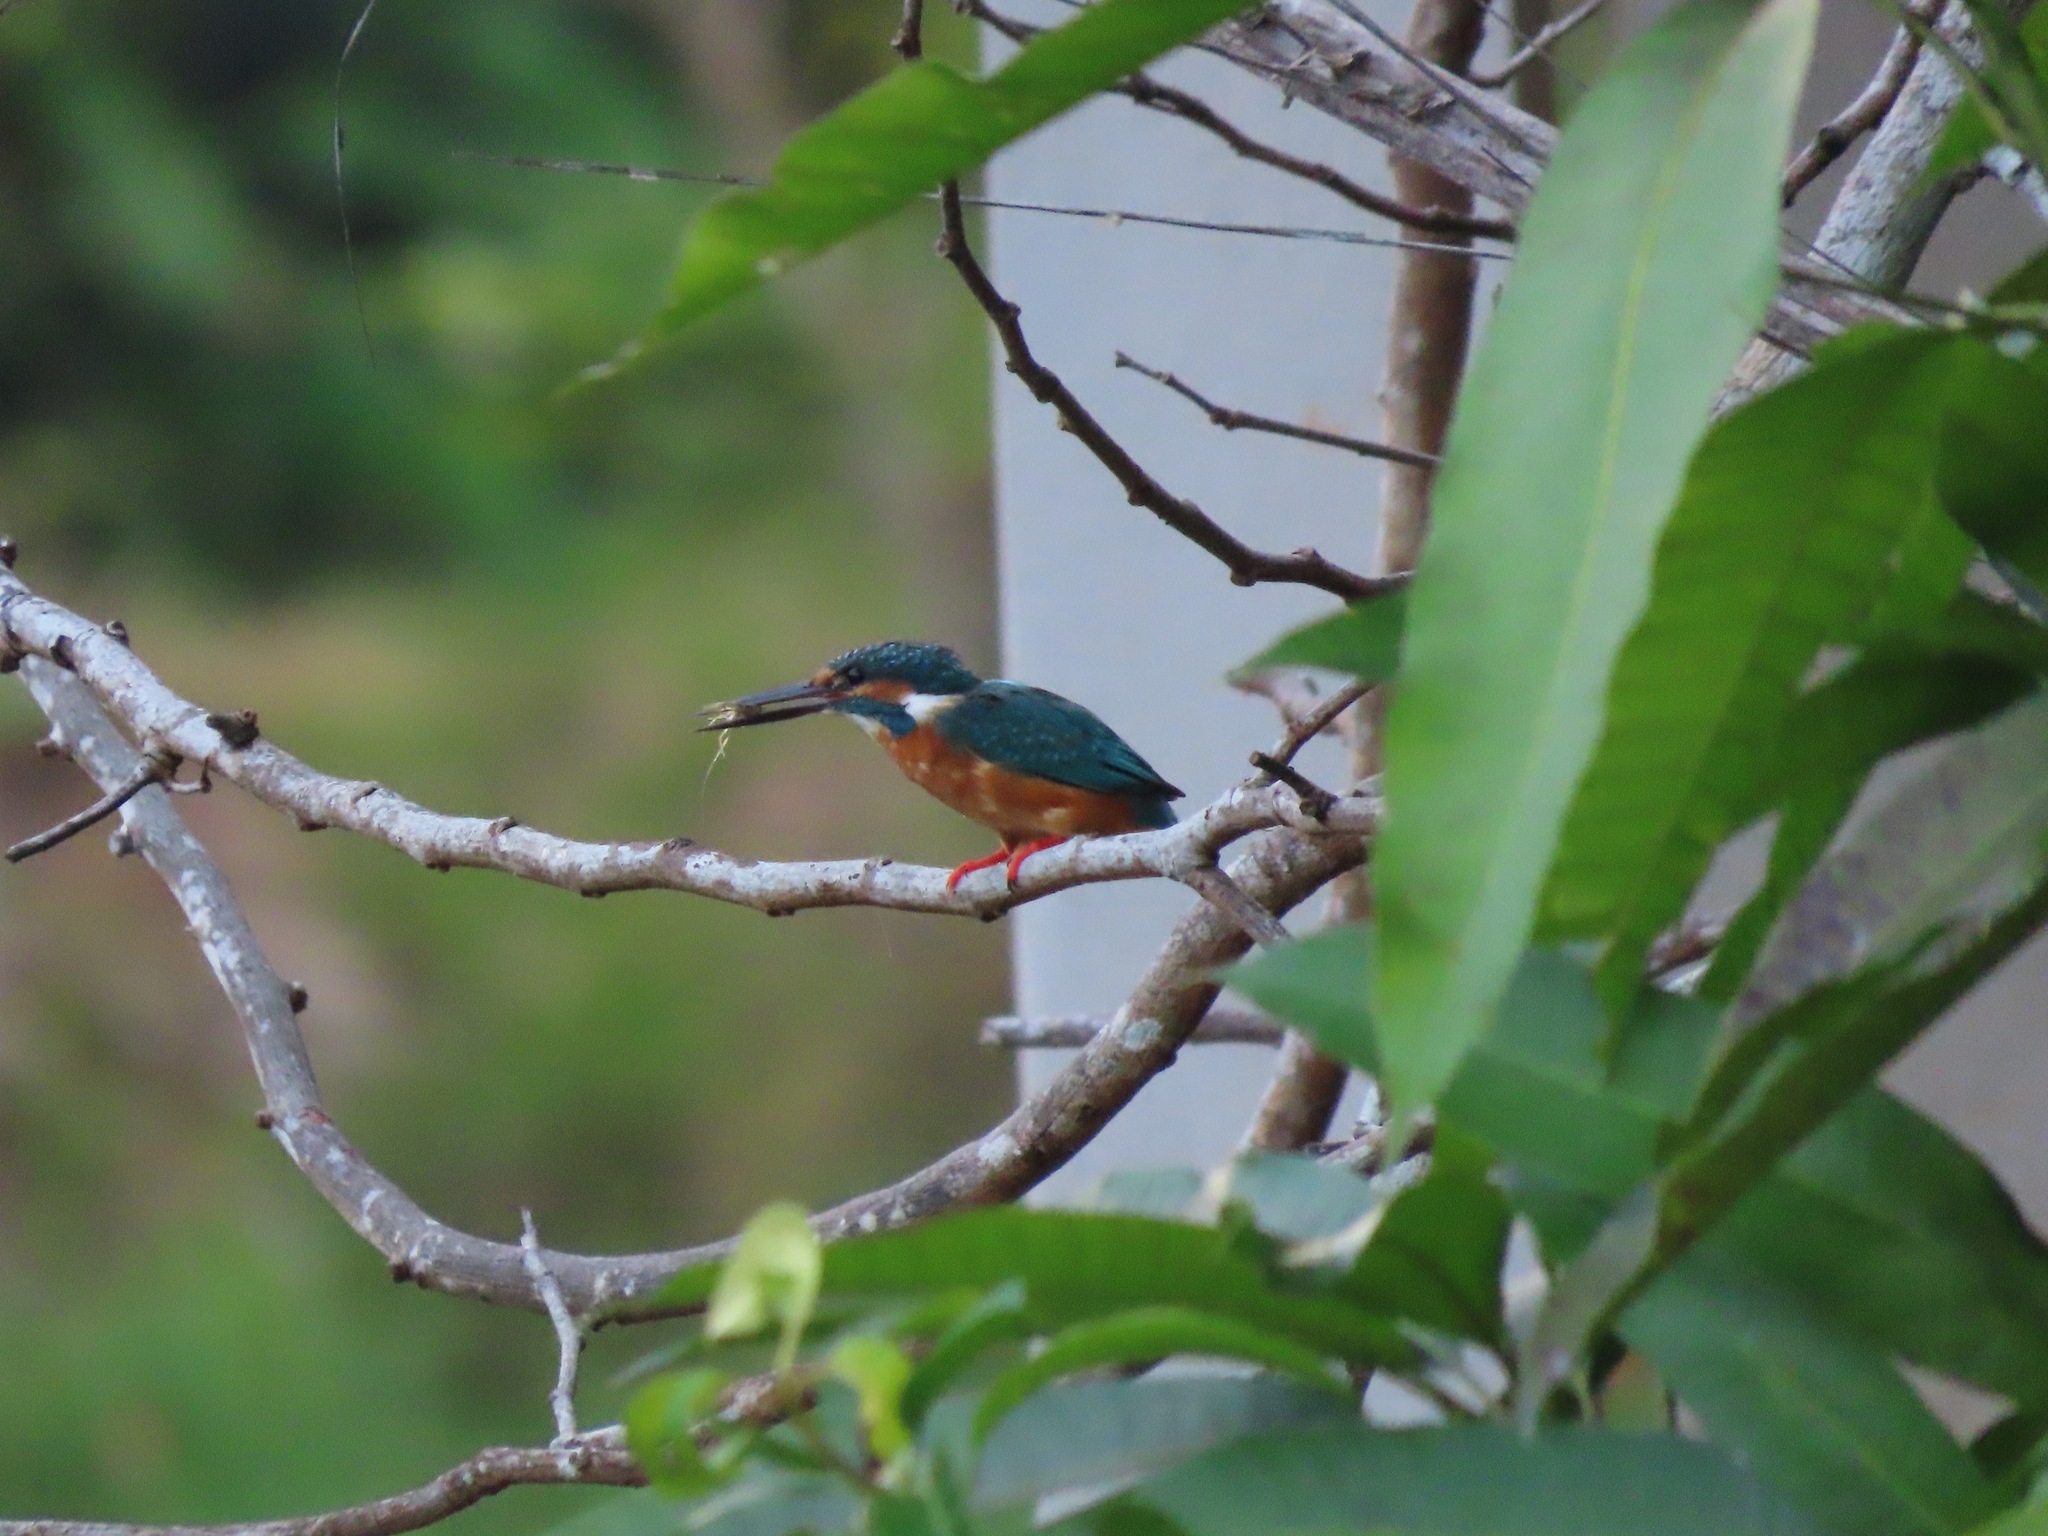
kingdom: Animalia
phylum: Chordata
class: Aves
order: Coraciiformes
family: Alcedinidae
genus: Alcedo
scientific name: Alcedo atthis
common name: Common kingfisher
